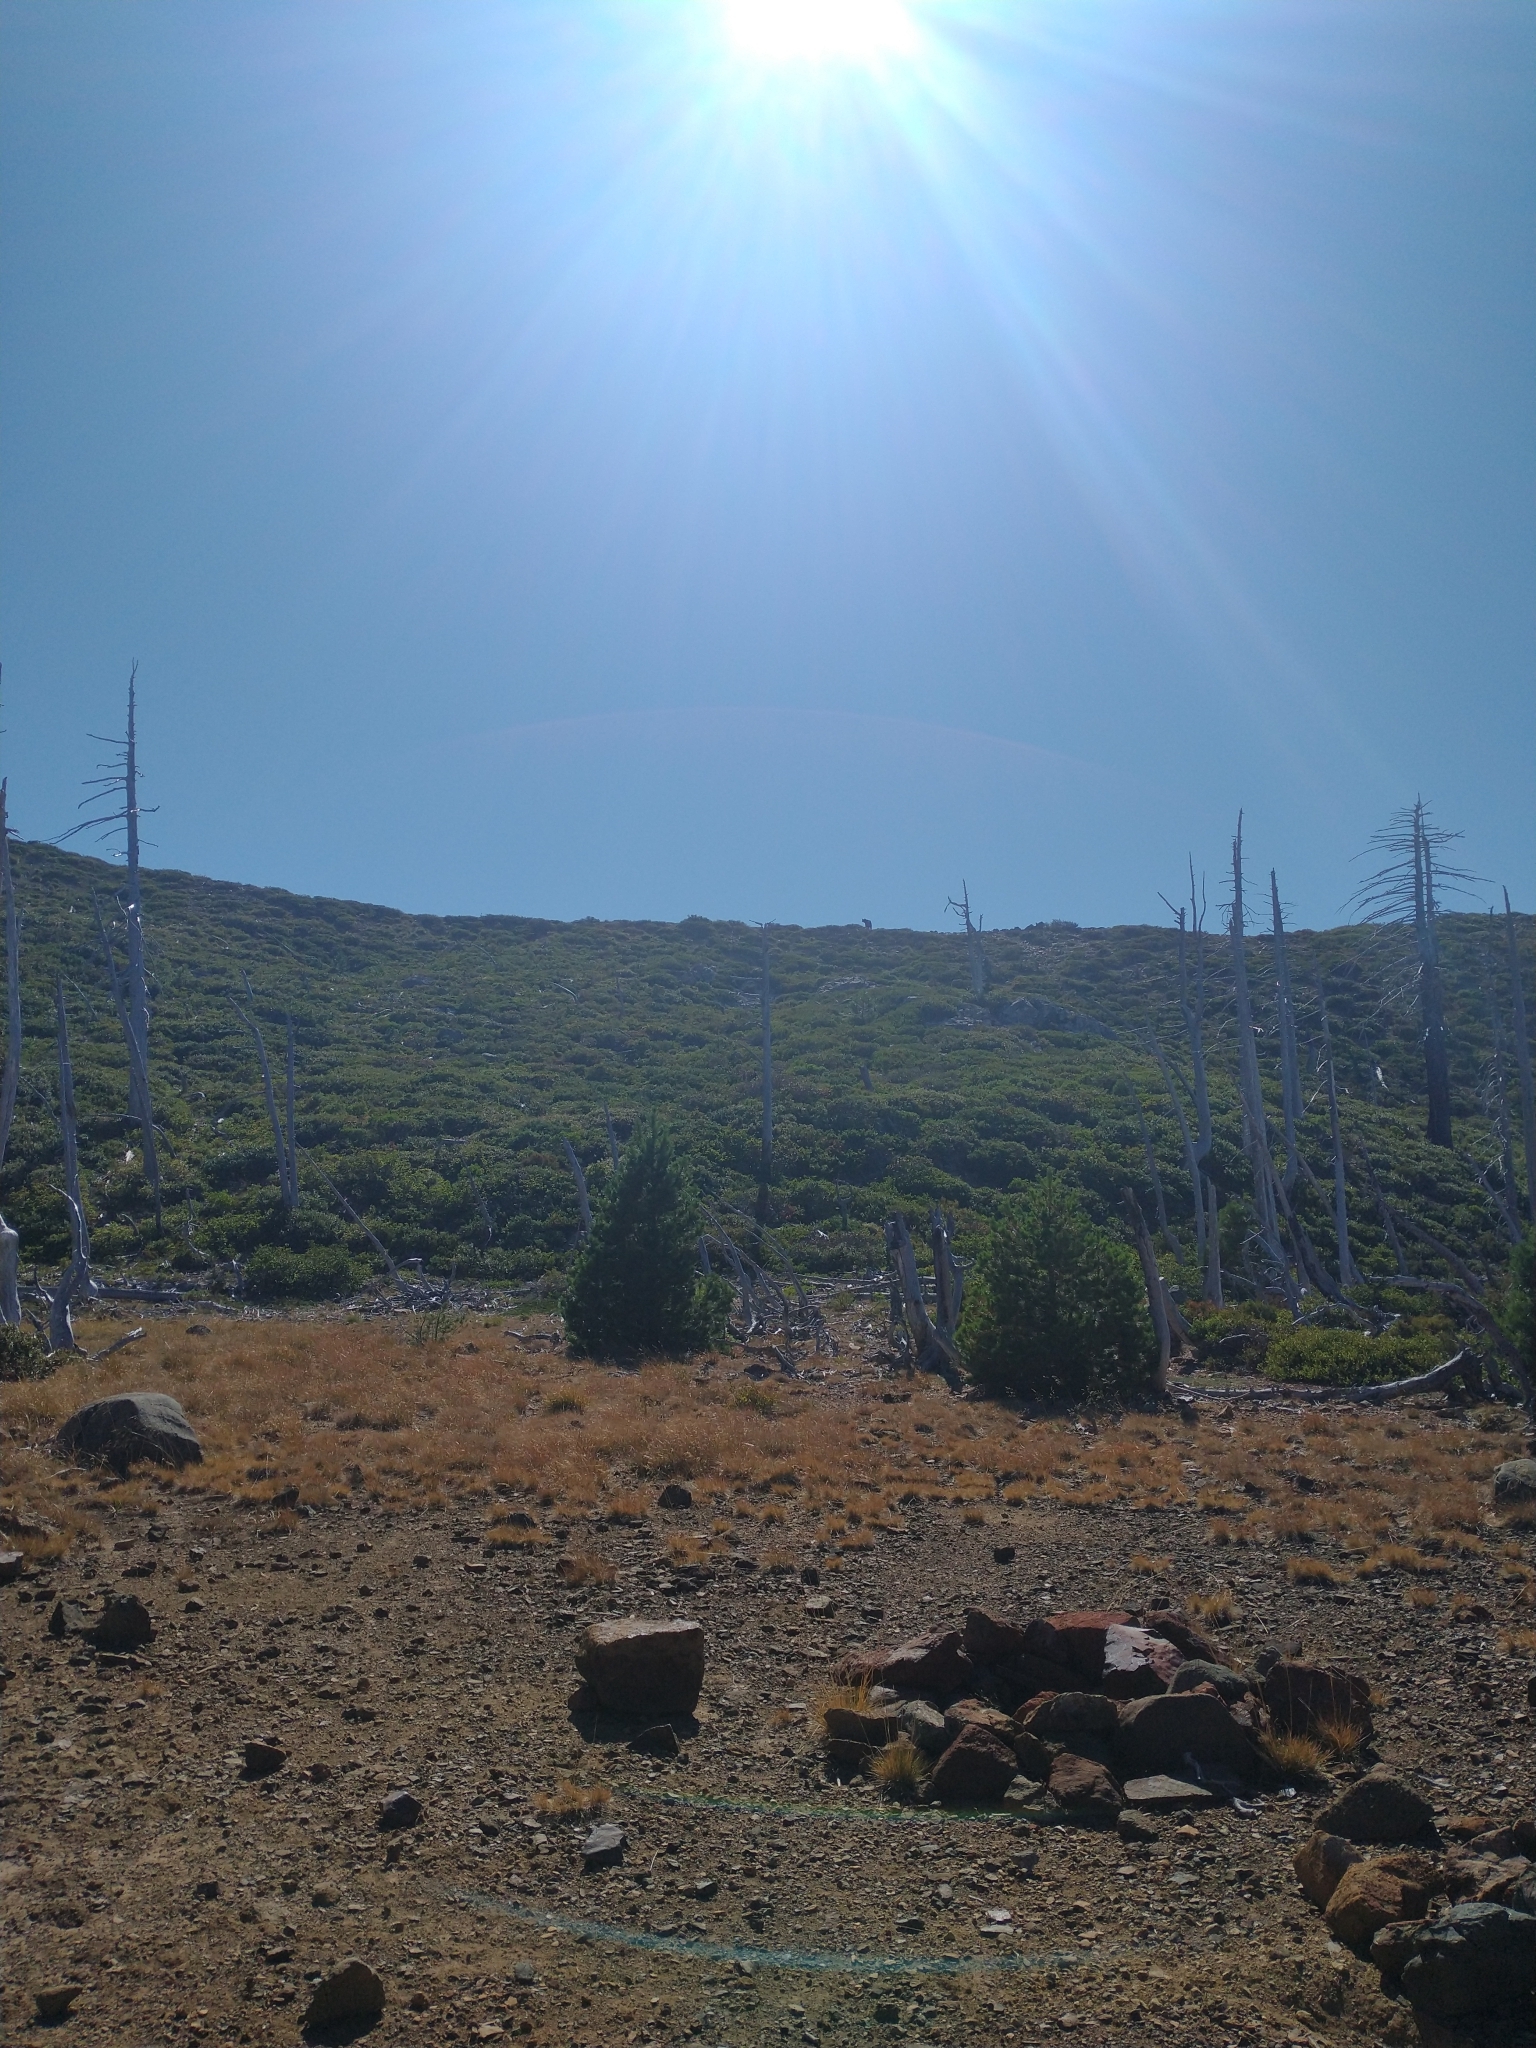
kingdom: Animalia
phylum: Chordata
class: Mammalia
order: Carnivora
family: Ursidae
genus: Ursus
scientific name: Ursus americanus
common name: American black bear
